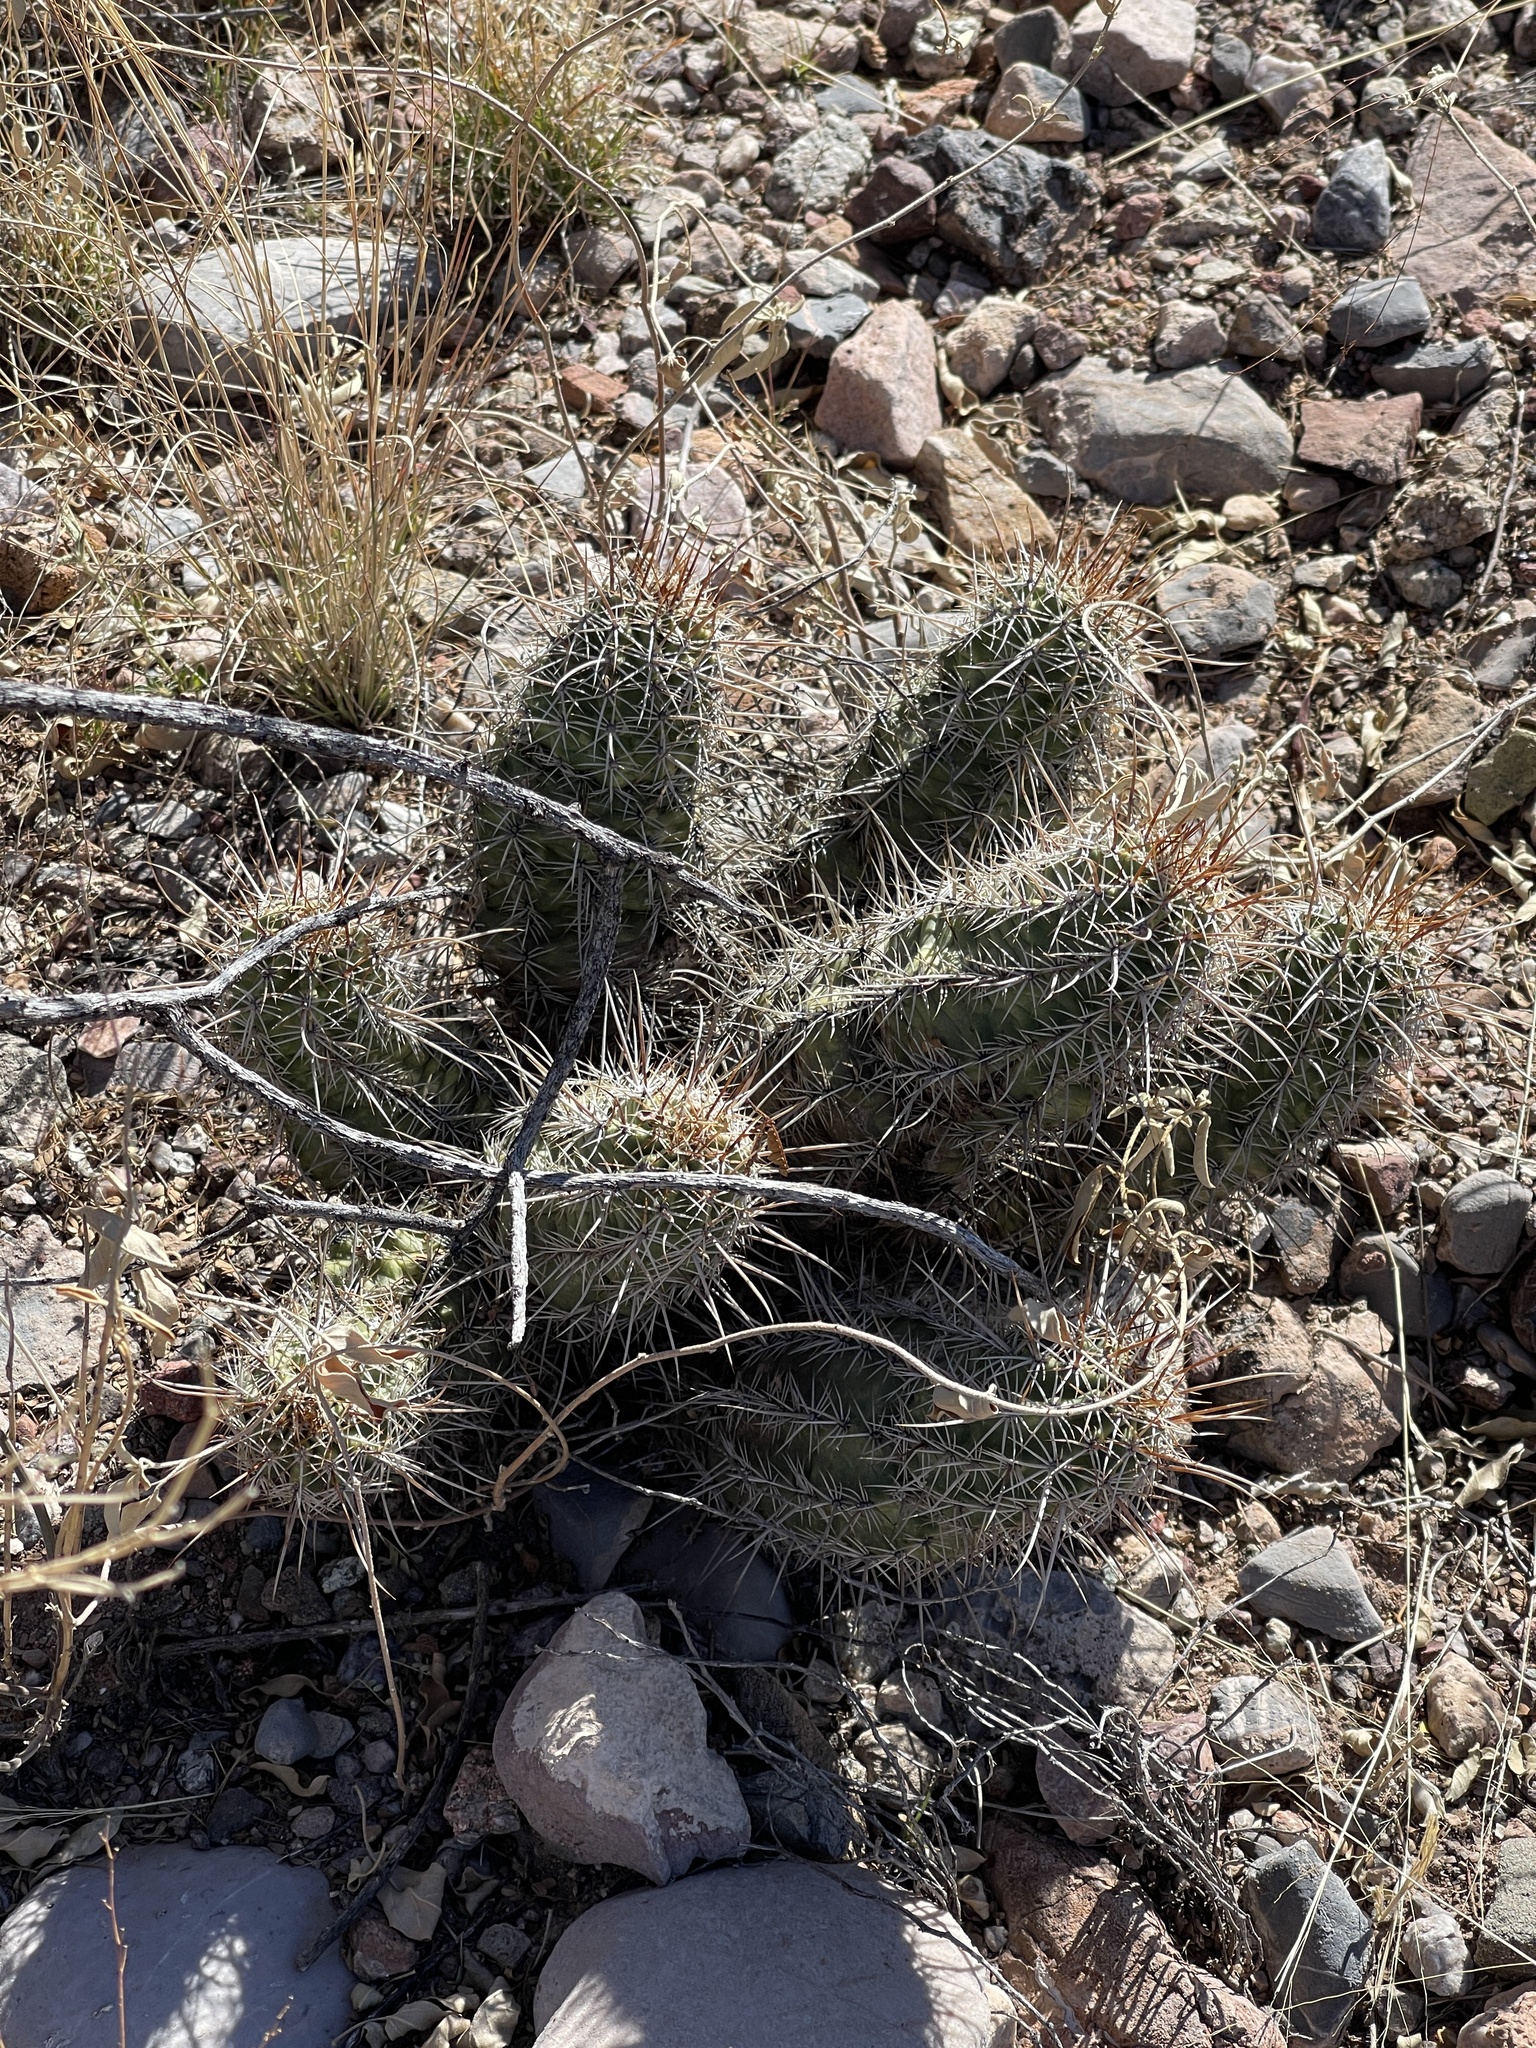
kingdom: Plantae
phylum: Tracheophyta
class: Magnoliopsida
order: Caryophyllales
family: Cactaceae
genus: Echinocereus
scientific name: Echinocereus fasciculatus
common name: Bundle hedgehog
